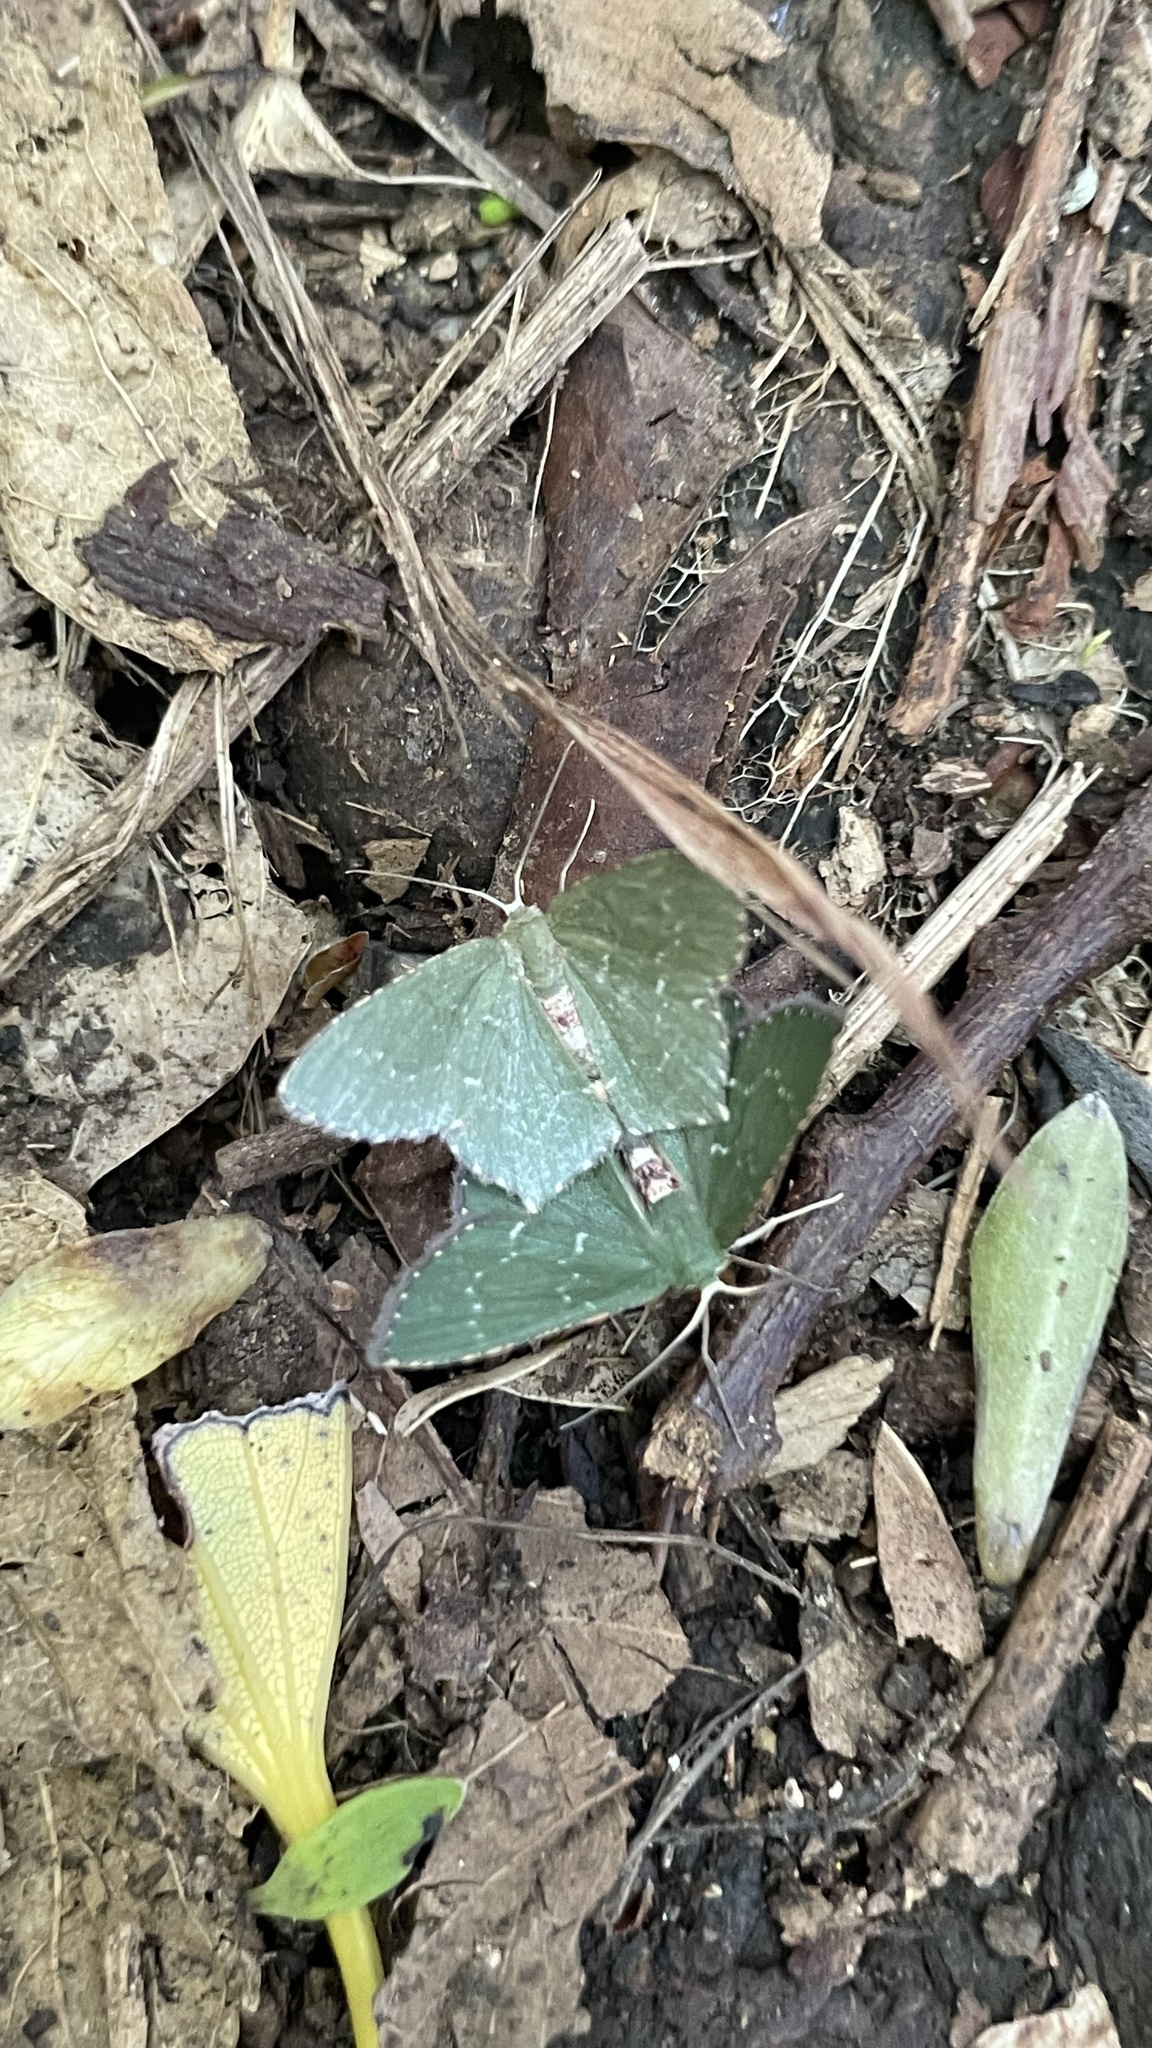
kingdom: Animalia
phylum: Arthropoda
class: Insecta
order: Lepidoptera
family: Geometridae
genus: Hemithea
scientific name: Hemithea tritonaria
